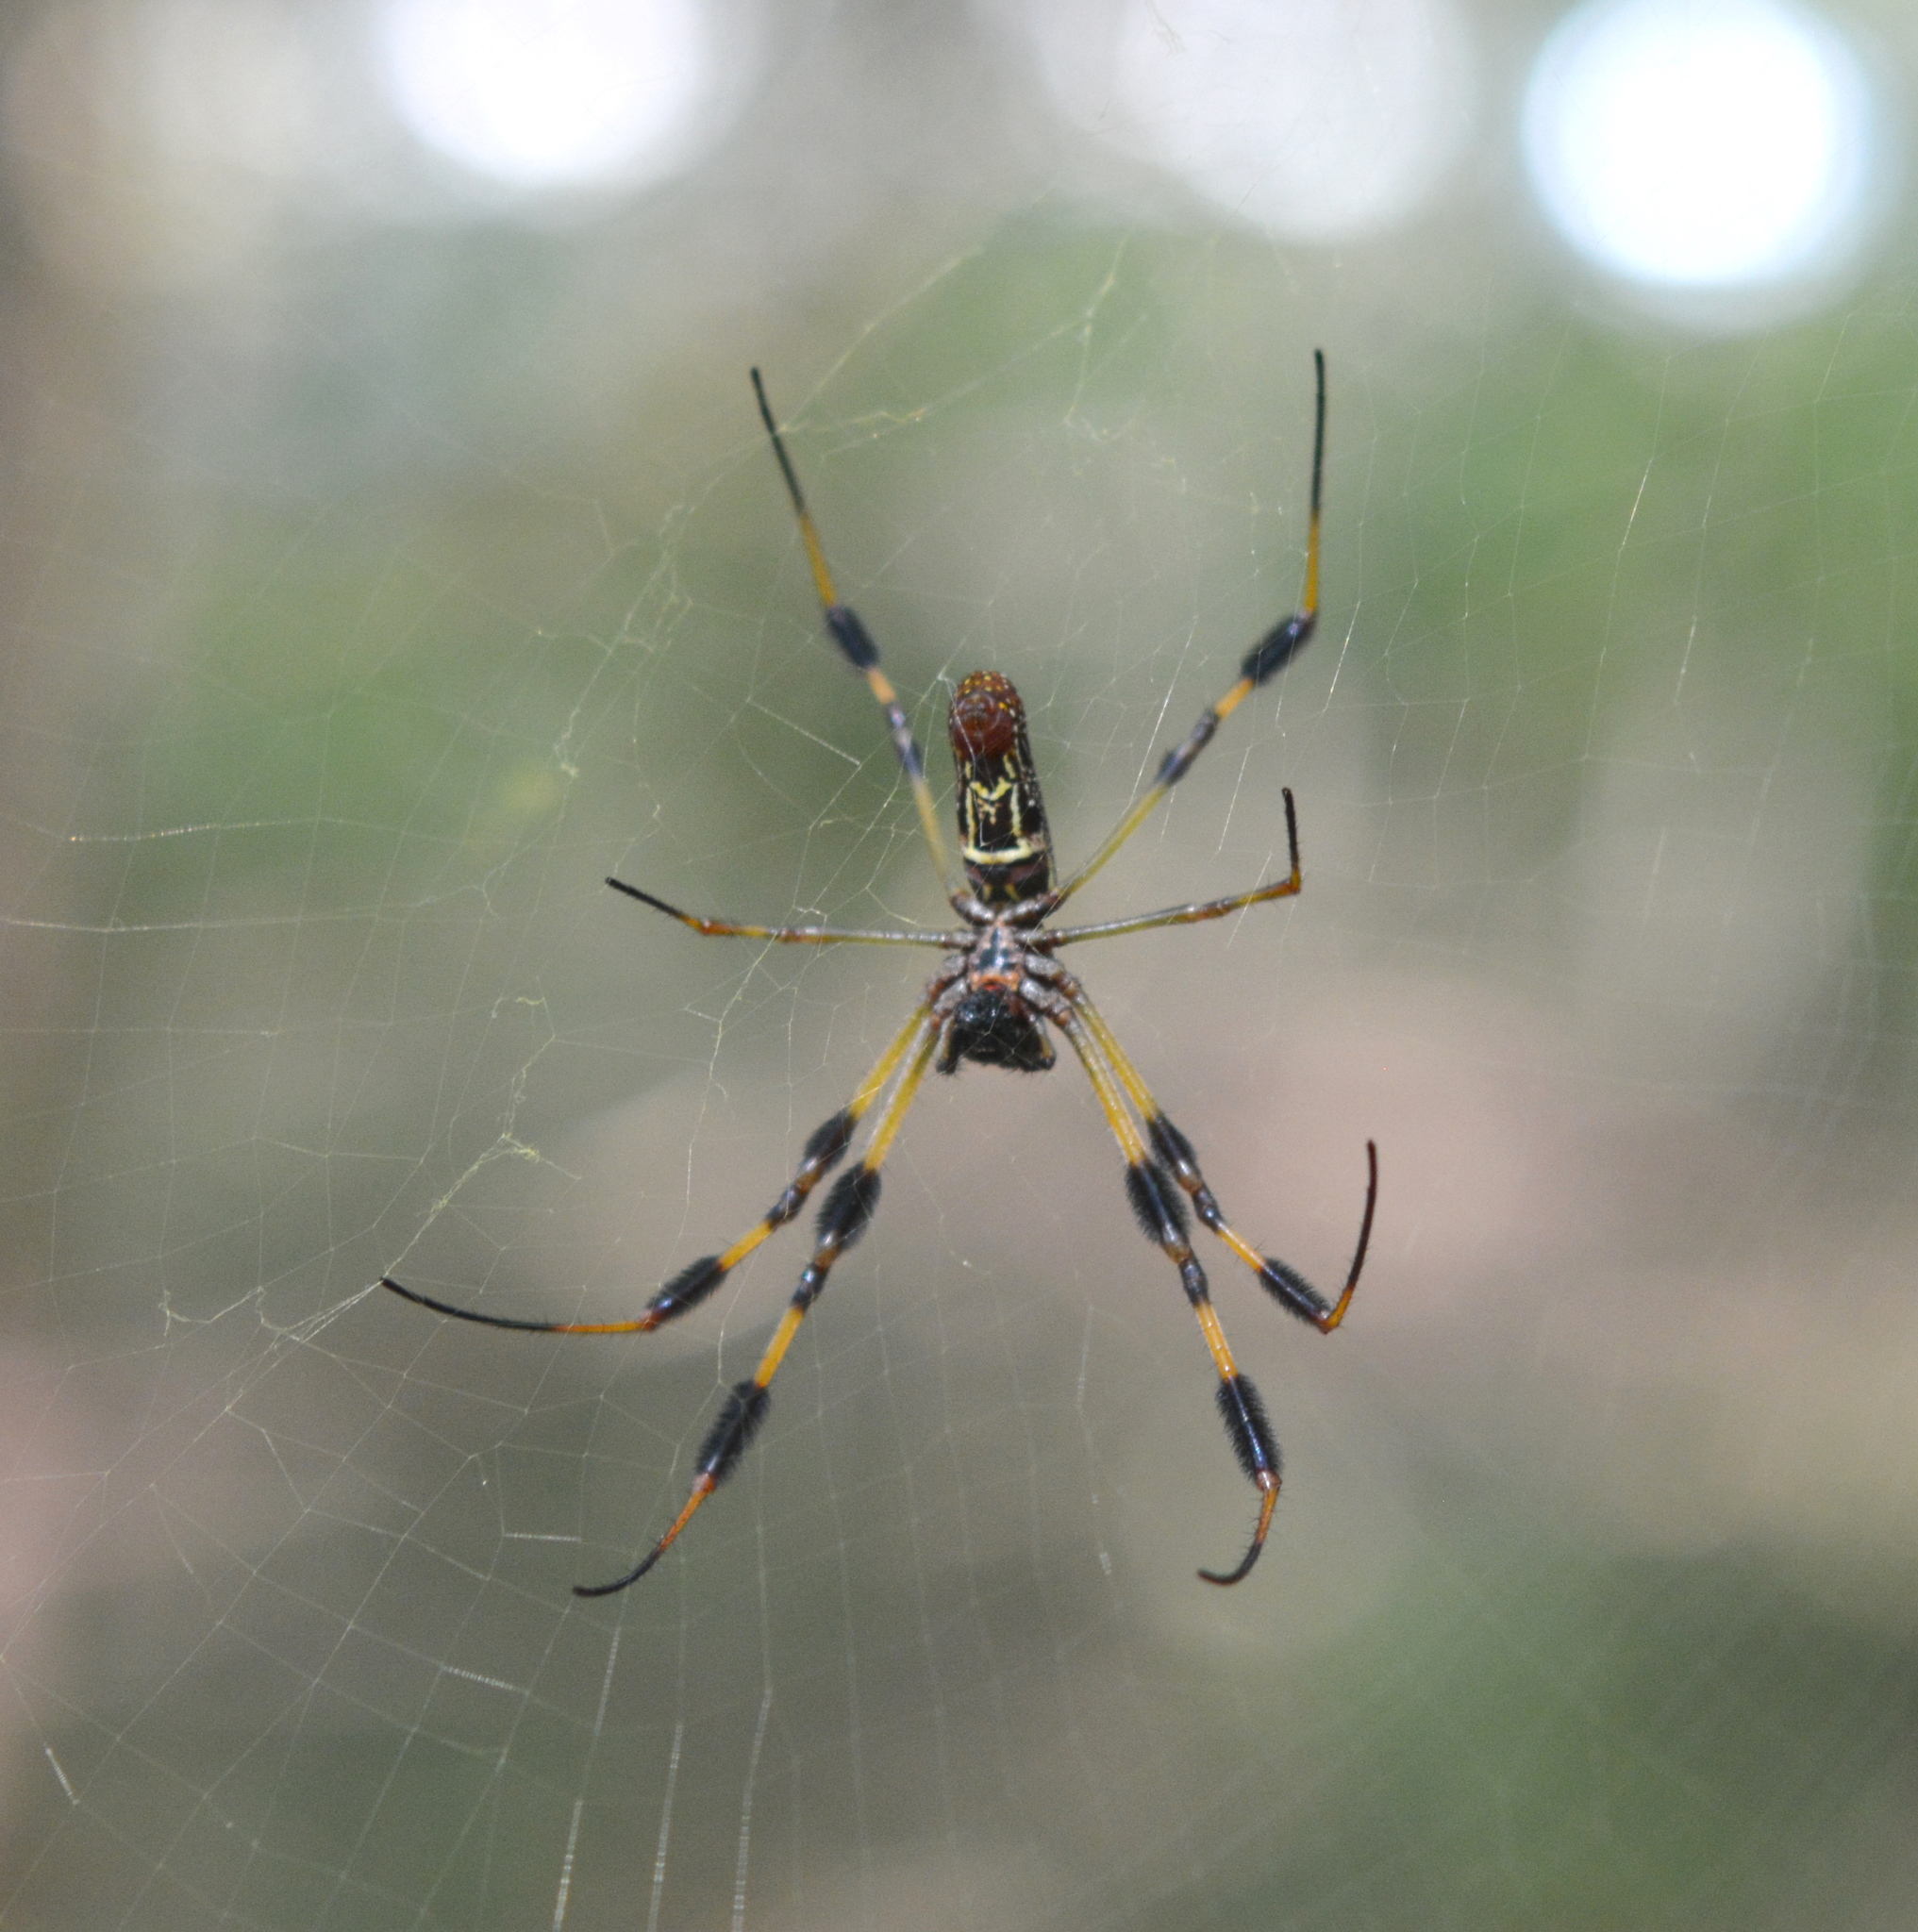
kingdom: Animalia
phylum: Arthropoda
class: Arachnida
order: Araneae
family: Araneidae
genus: Trichonephila
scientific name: Trichonephila clavipes
